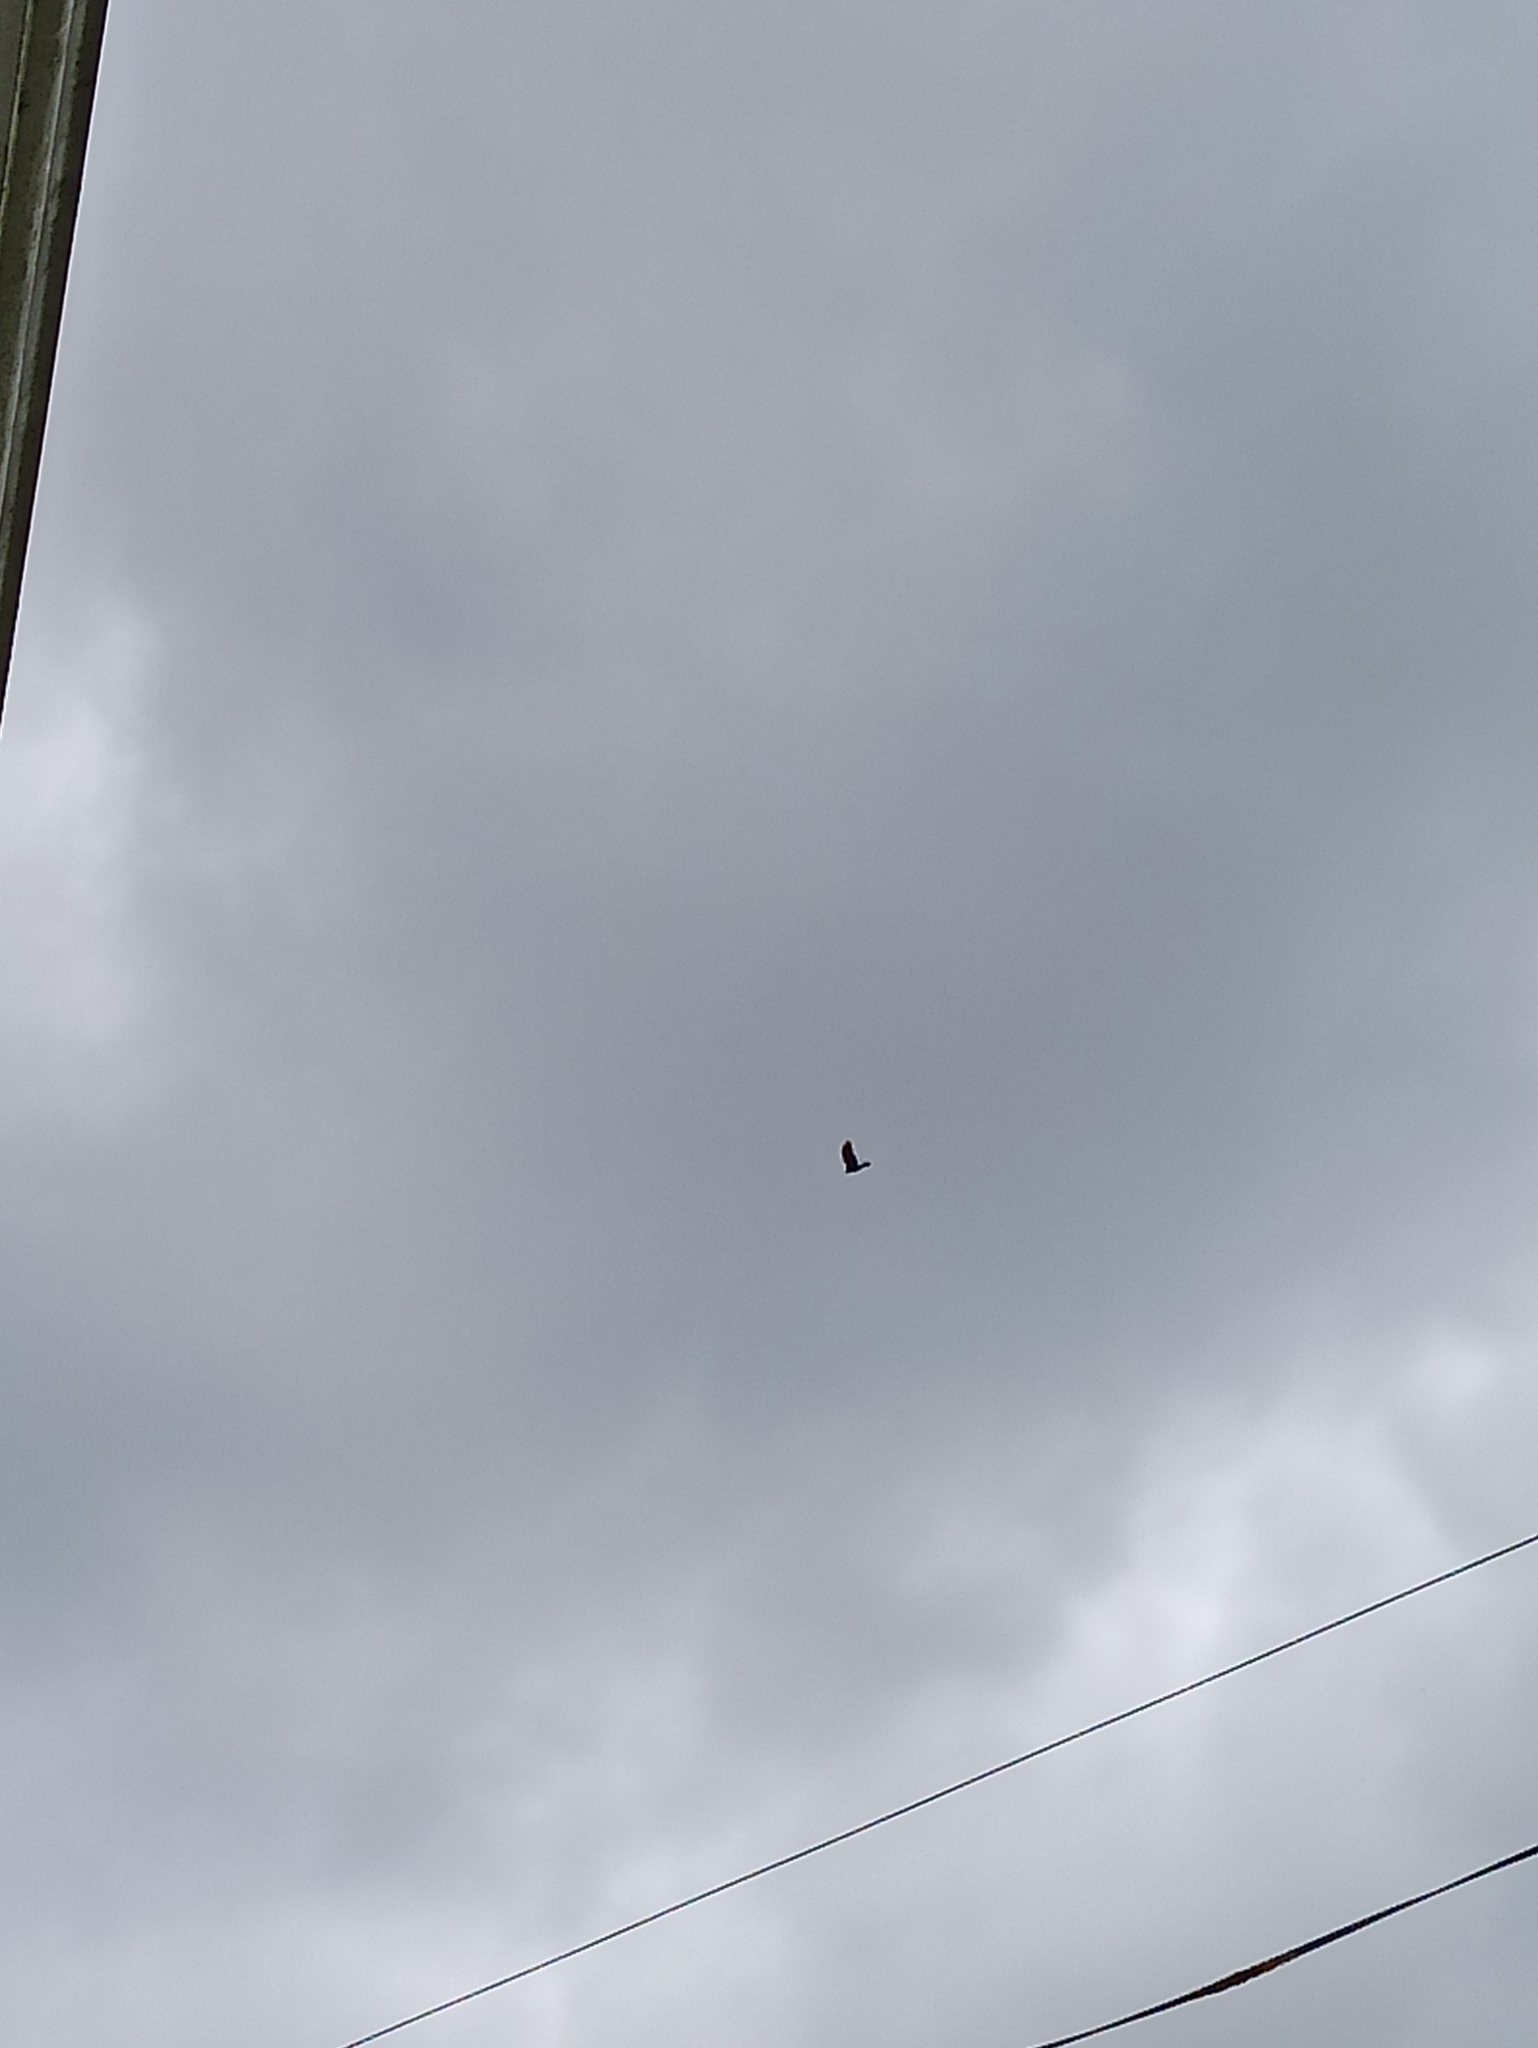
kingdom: Animalia
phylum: Chordata
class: Aves
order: Passeriformes
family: Corvidae
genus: Corvus
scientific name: Corvus corone
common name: Carrion crow
